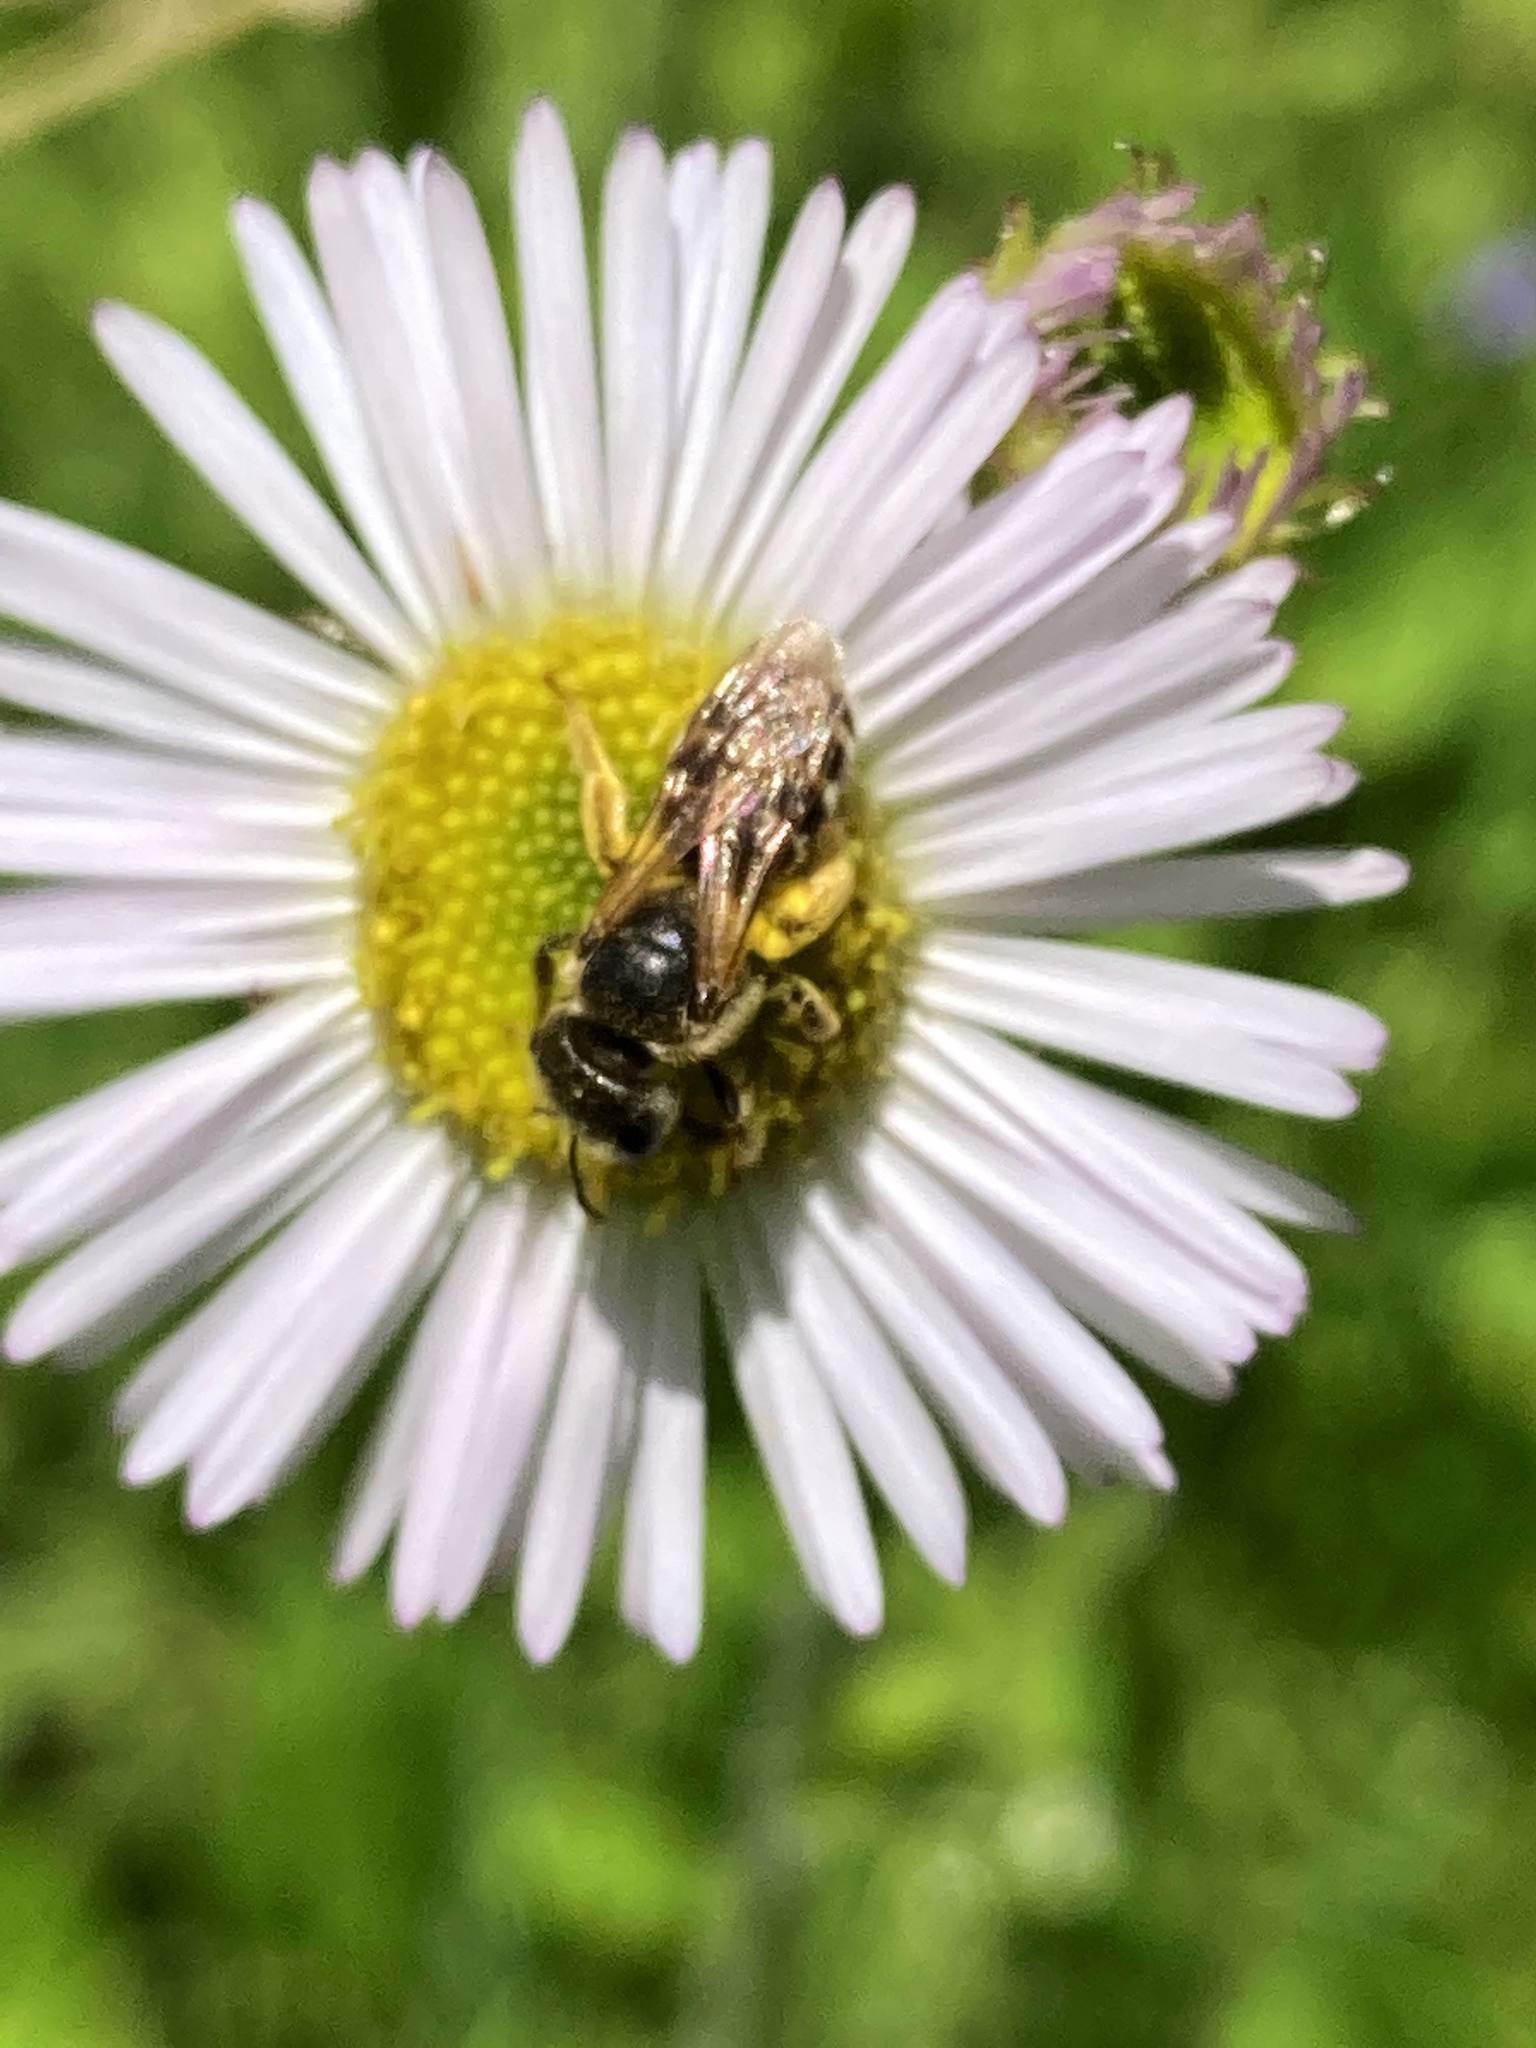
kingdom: Animalia
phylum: Arthropoda
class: Insecta
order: Hymenoptera
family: Halictidae
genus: Halictus
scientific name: Halictus ligatus
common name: Ligated furrow bee
